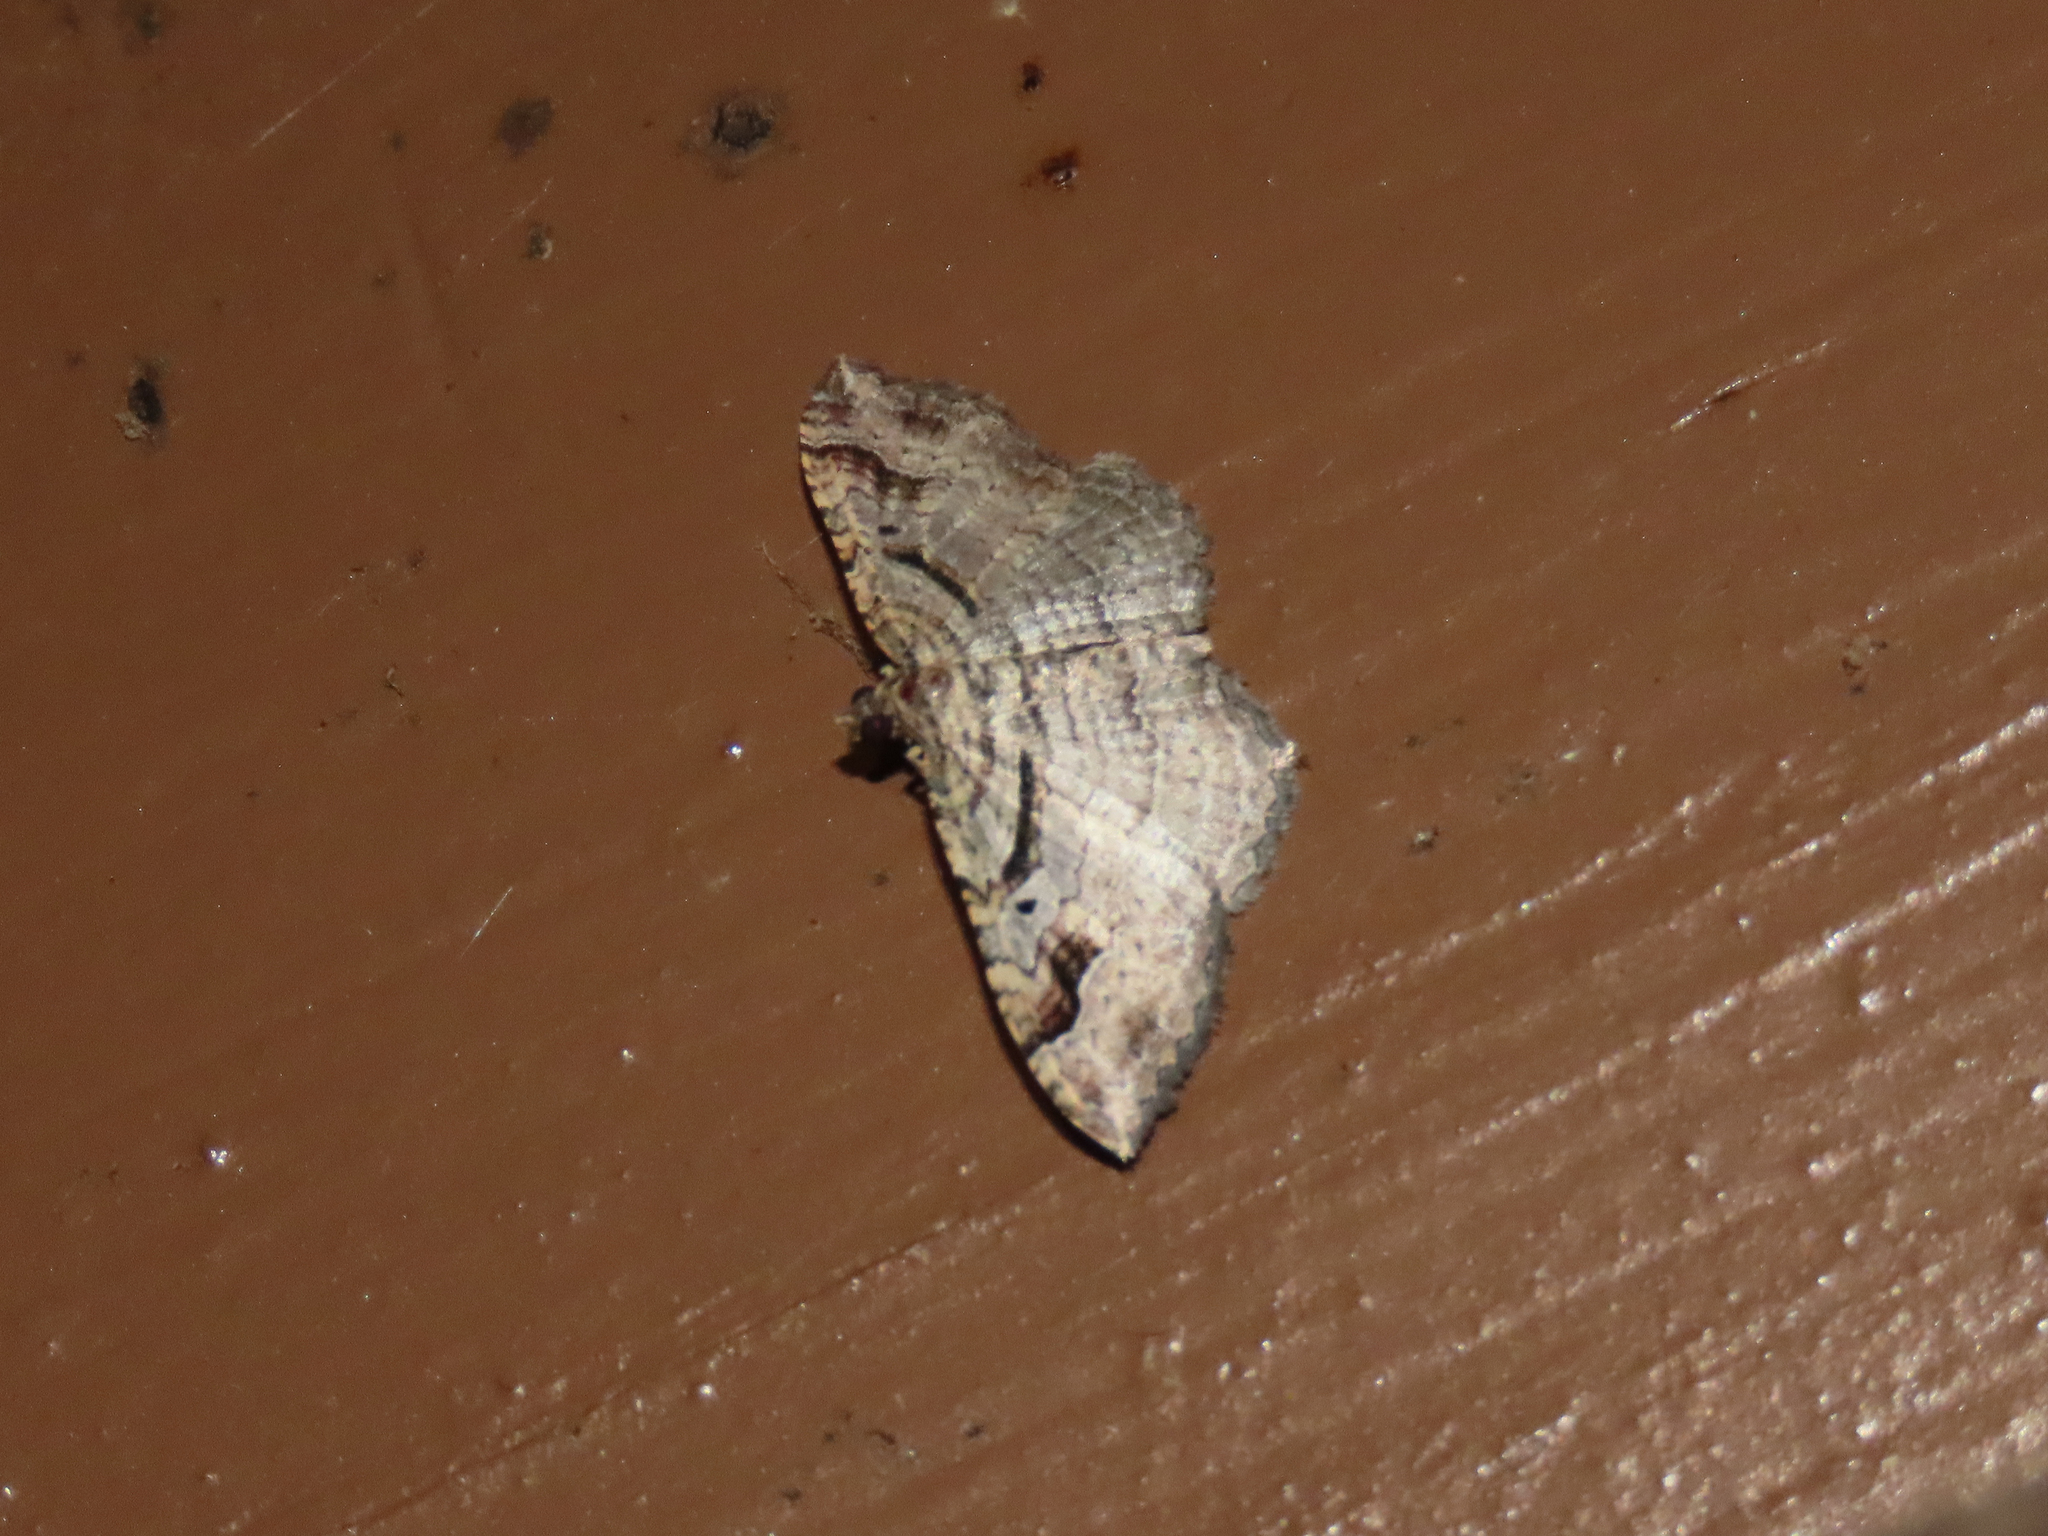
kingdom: Animalia
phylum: Arthropoda
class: Insecta
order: Lepidoptera
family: Geometridae
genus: Costaconvexa
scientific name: Costaconvexa centrostrigaria
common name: Bent-line carpet
